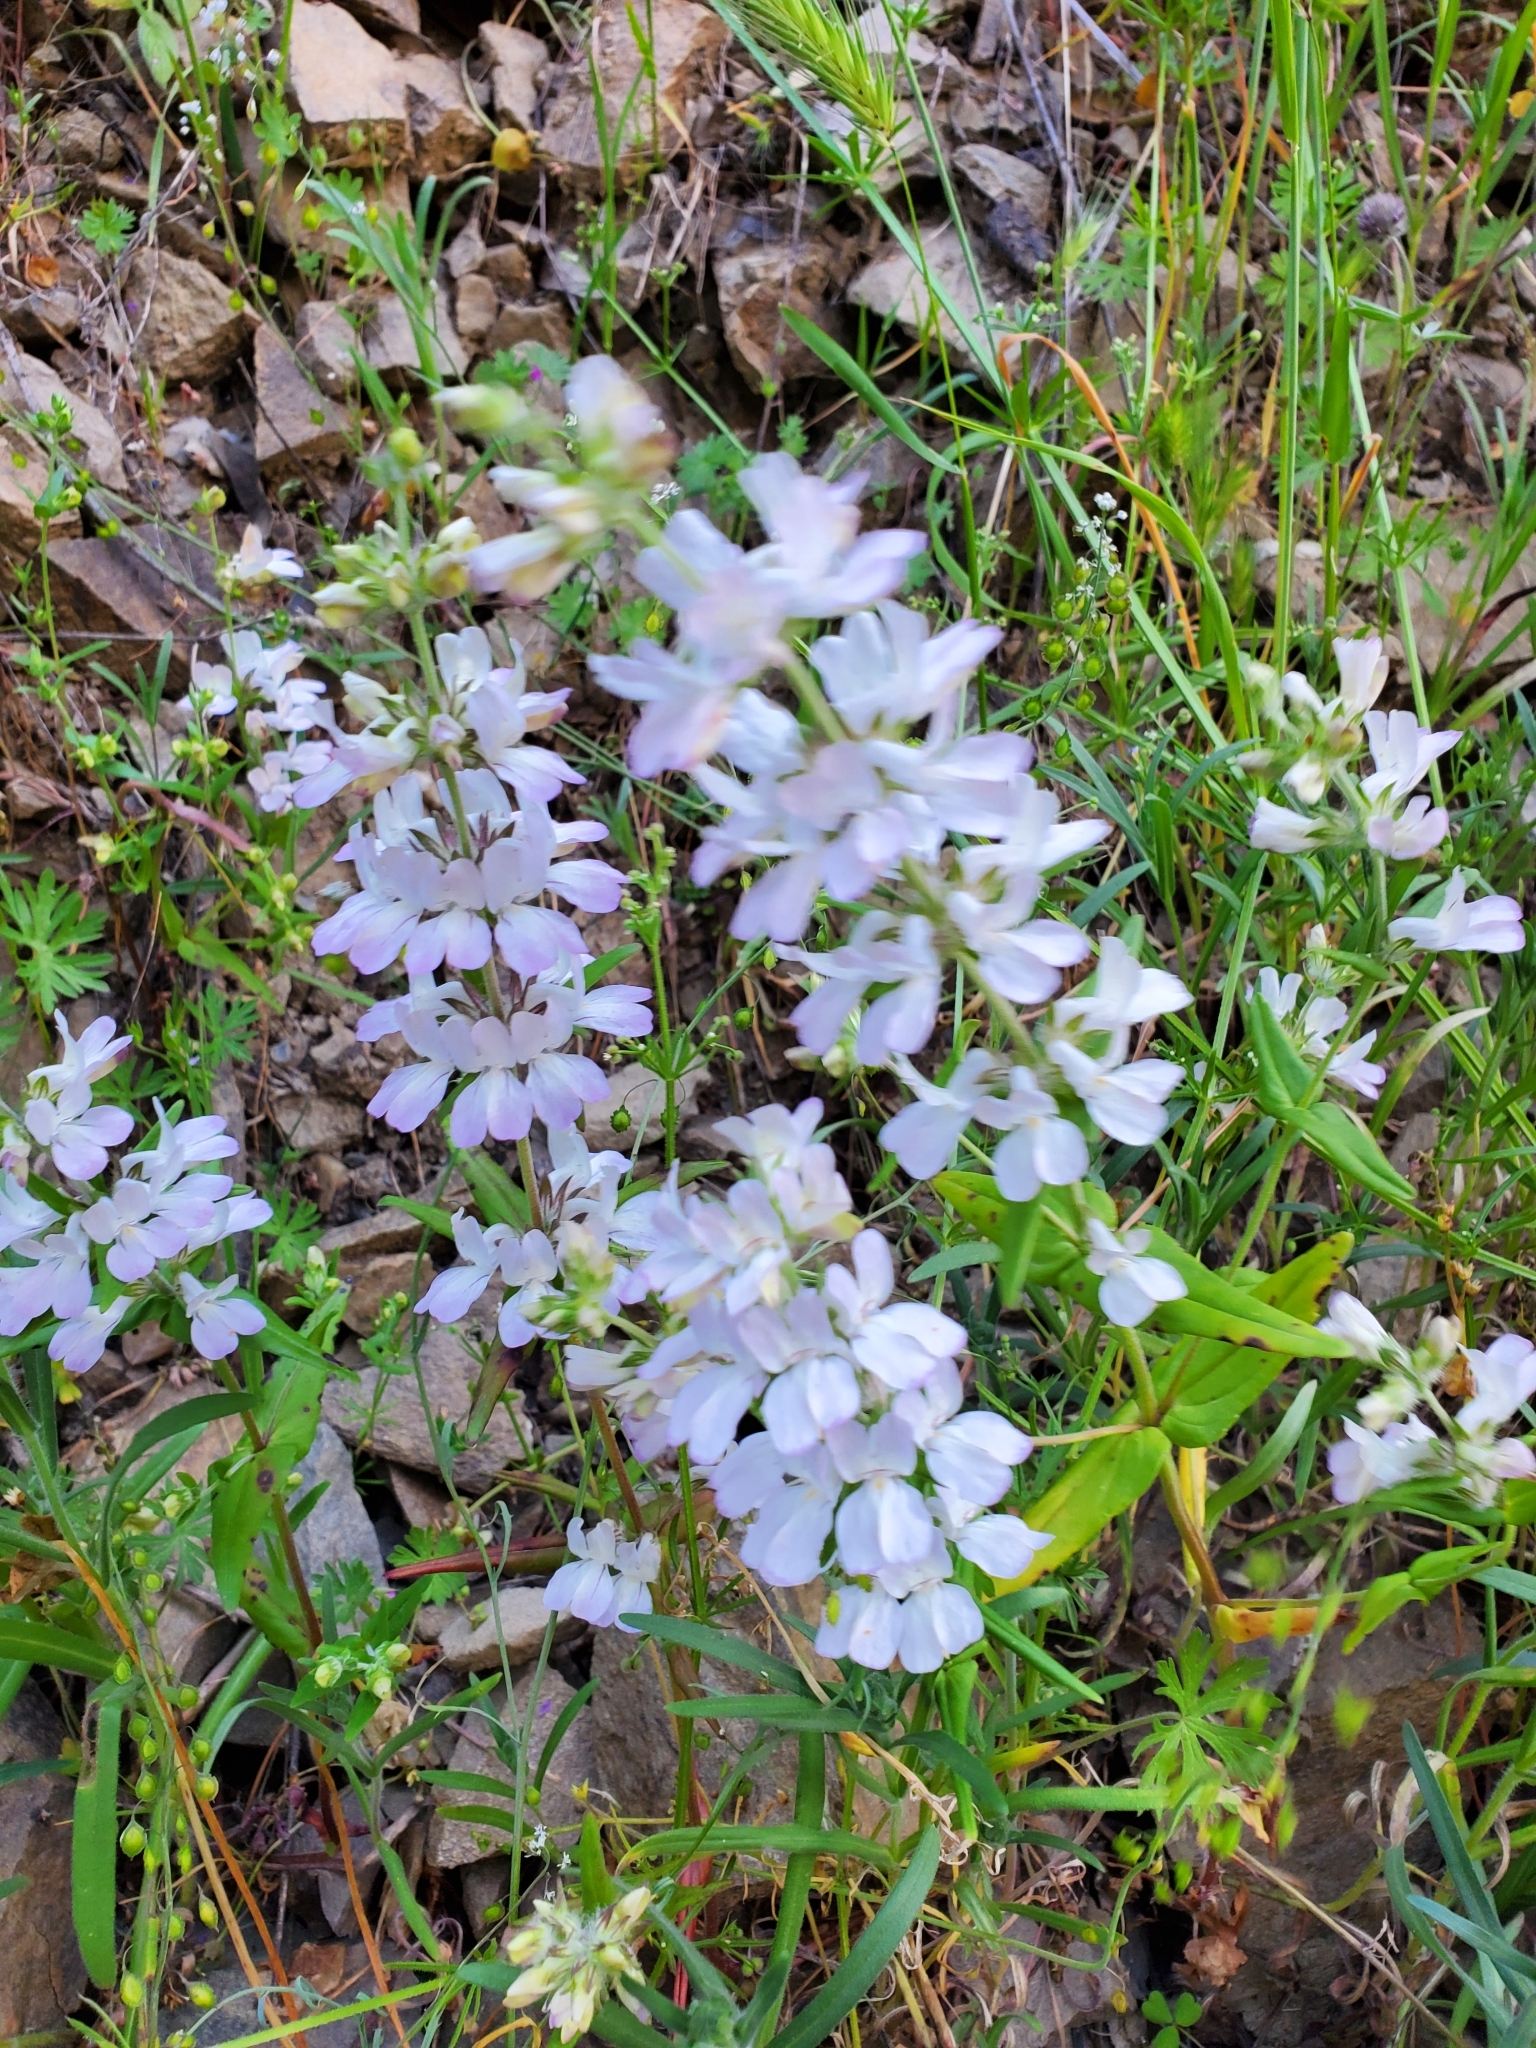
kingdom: Plantae
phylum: Tracheophyta
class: Magnoliopsida
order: Lamiales
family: Plantaginaceae
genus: Collinsia
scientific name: Collinsia heterophylla
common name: Chinese-houses
